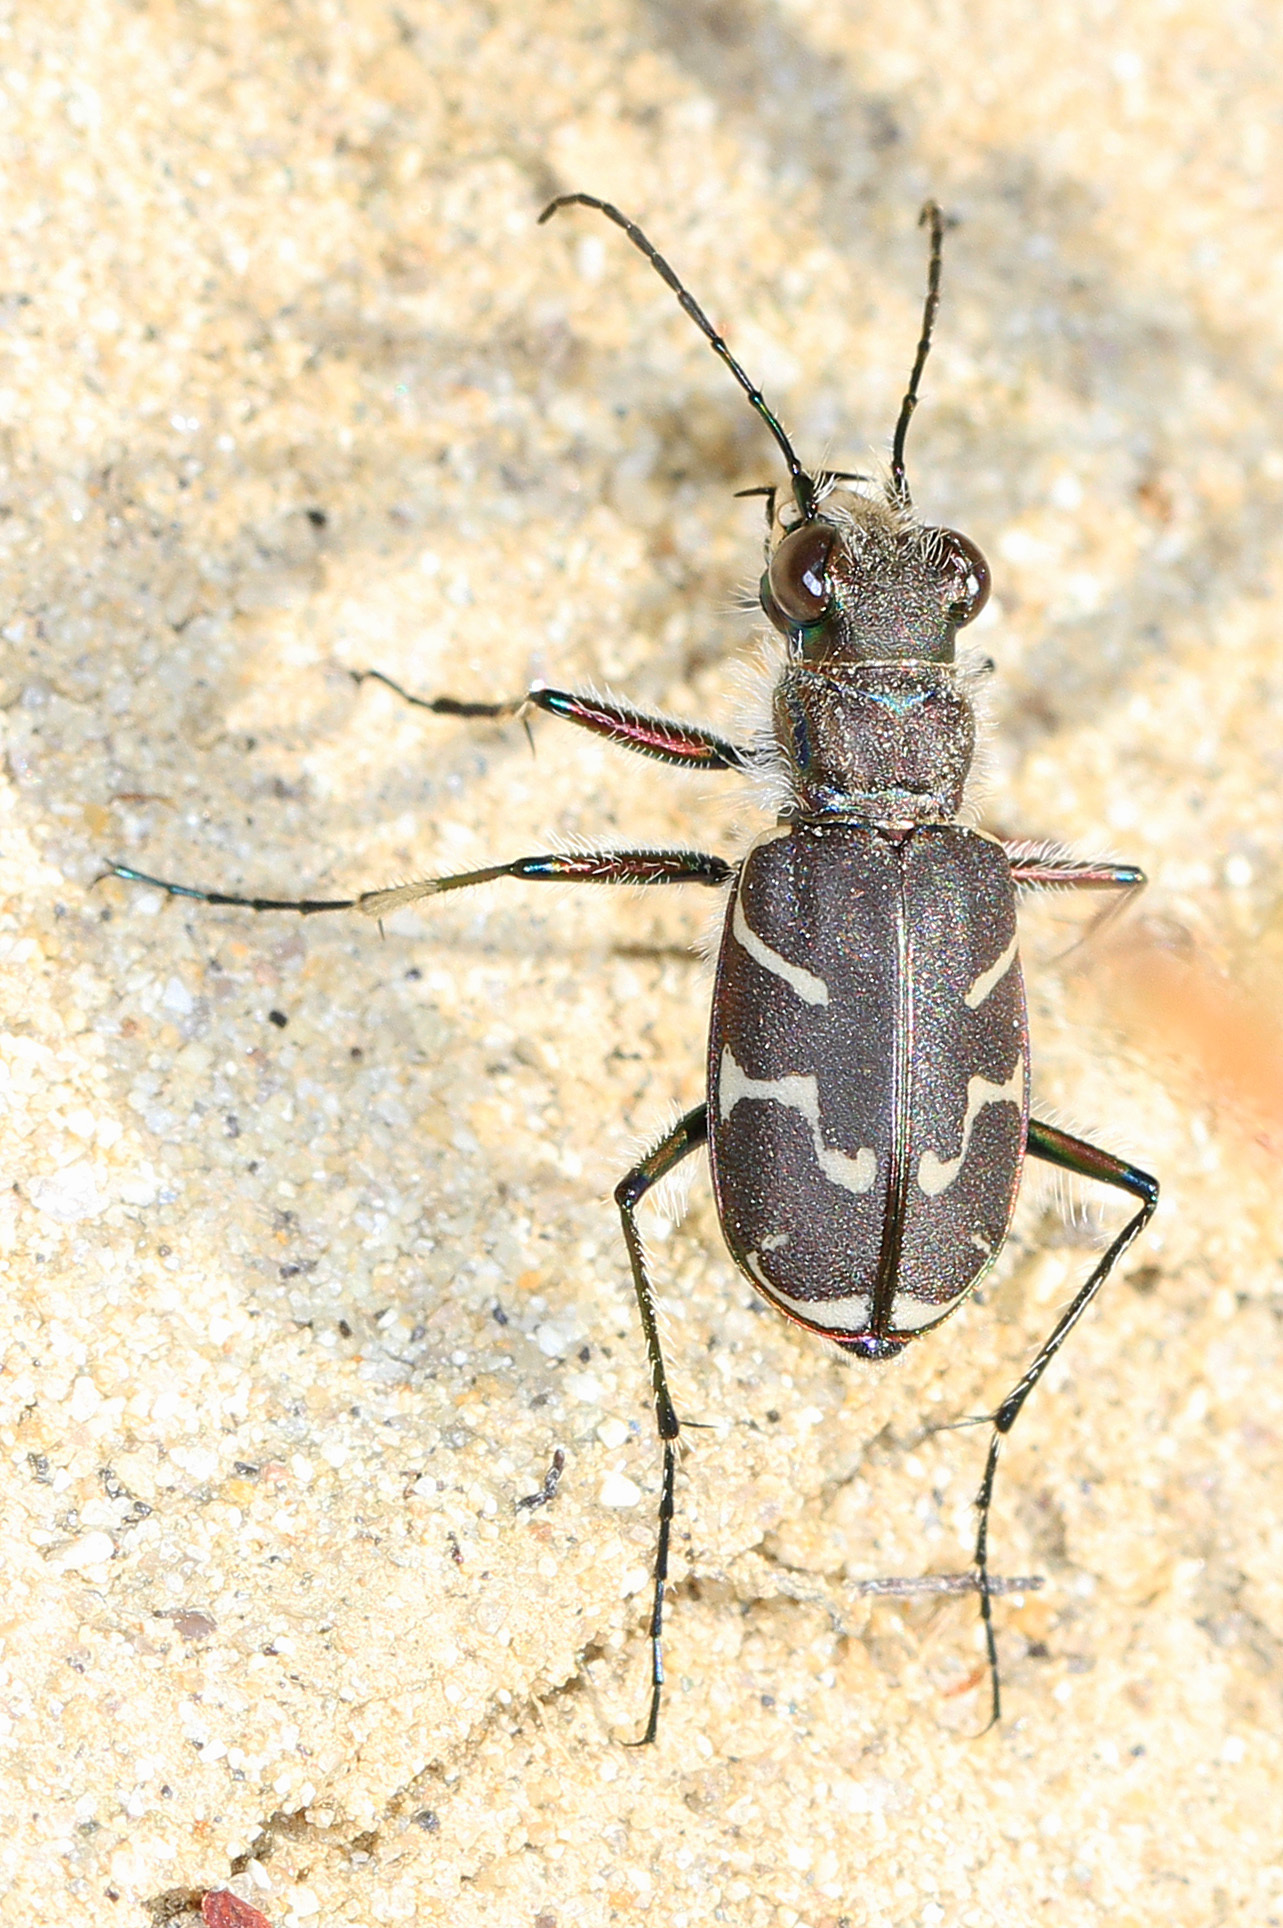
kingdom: Animalia
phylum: Arthropoda
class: Insecta
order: Coleoptera
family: Carabidae
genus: Cicindela
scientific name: Cicindela tranquebarica
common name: Oblique-lined tiger beetle
